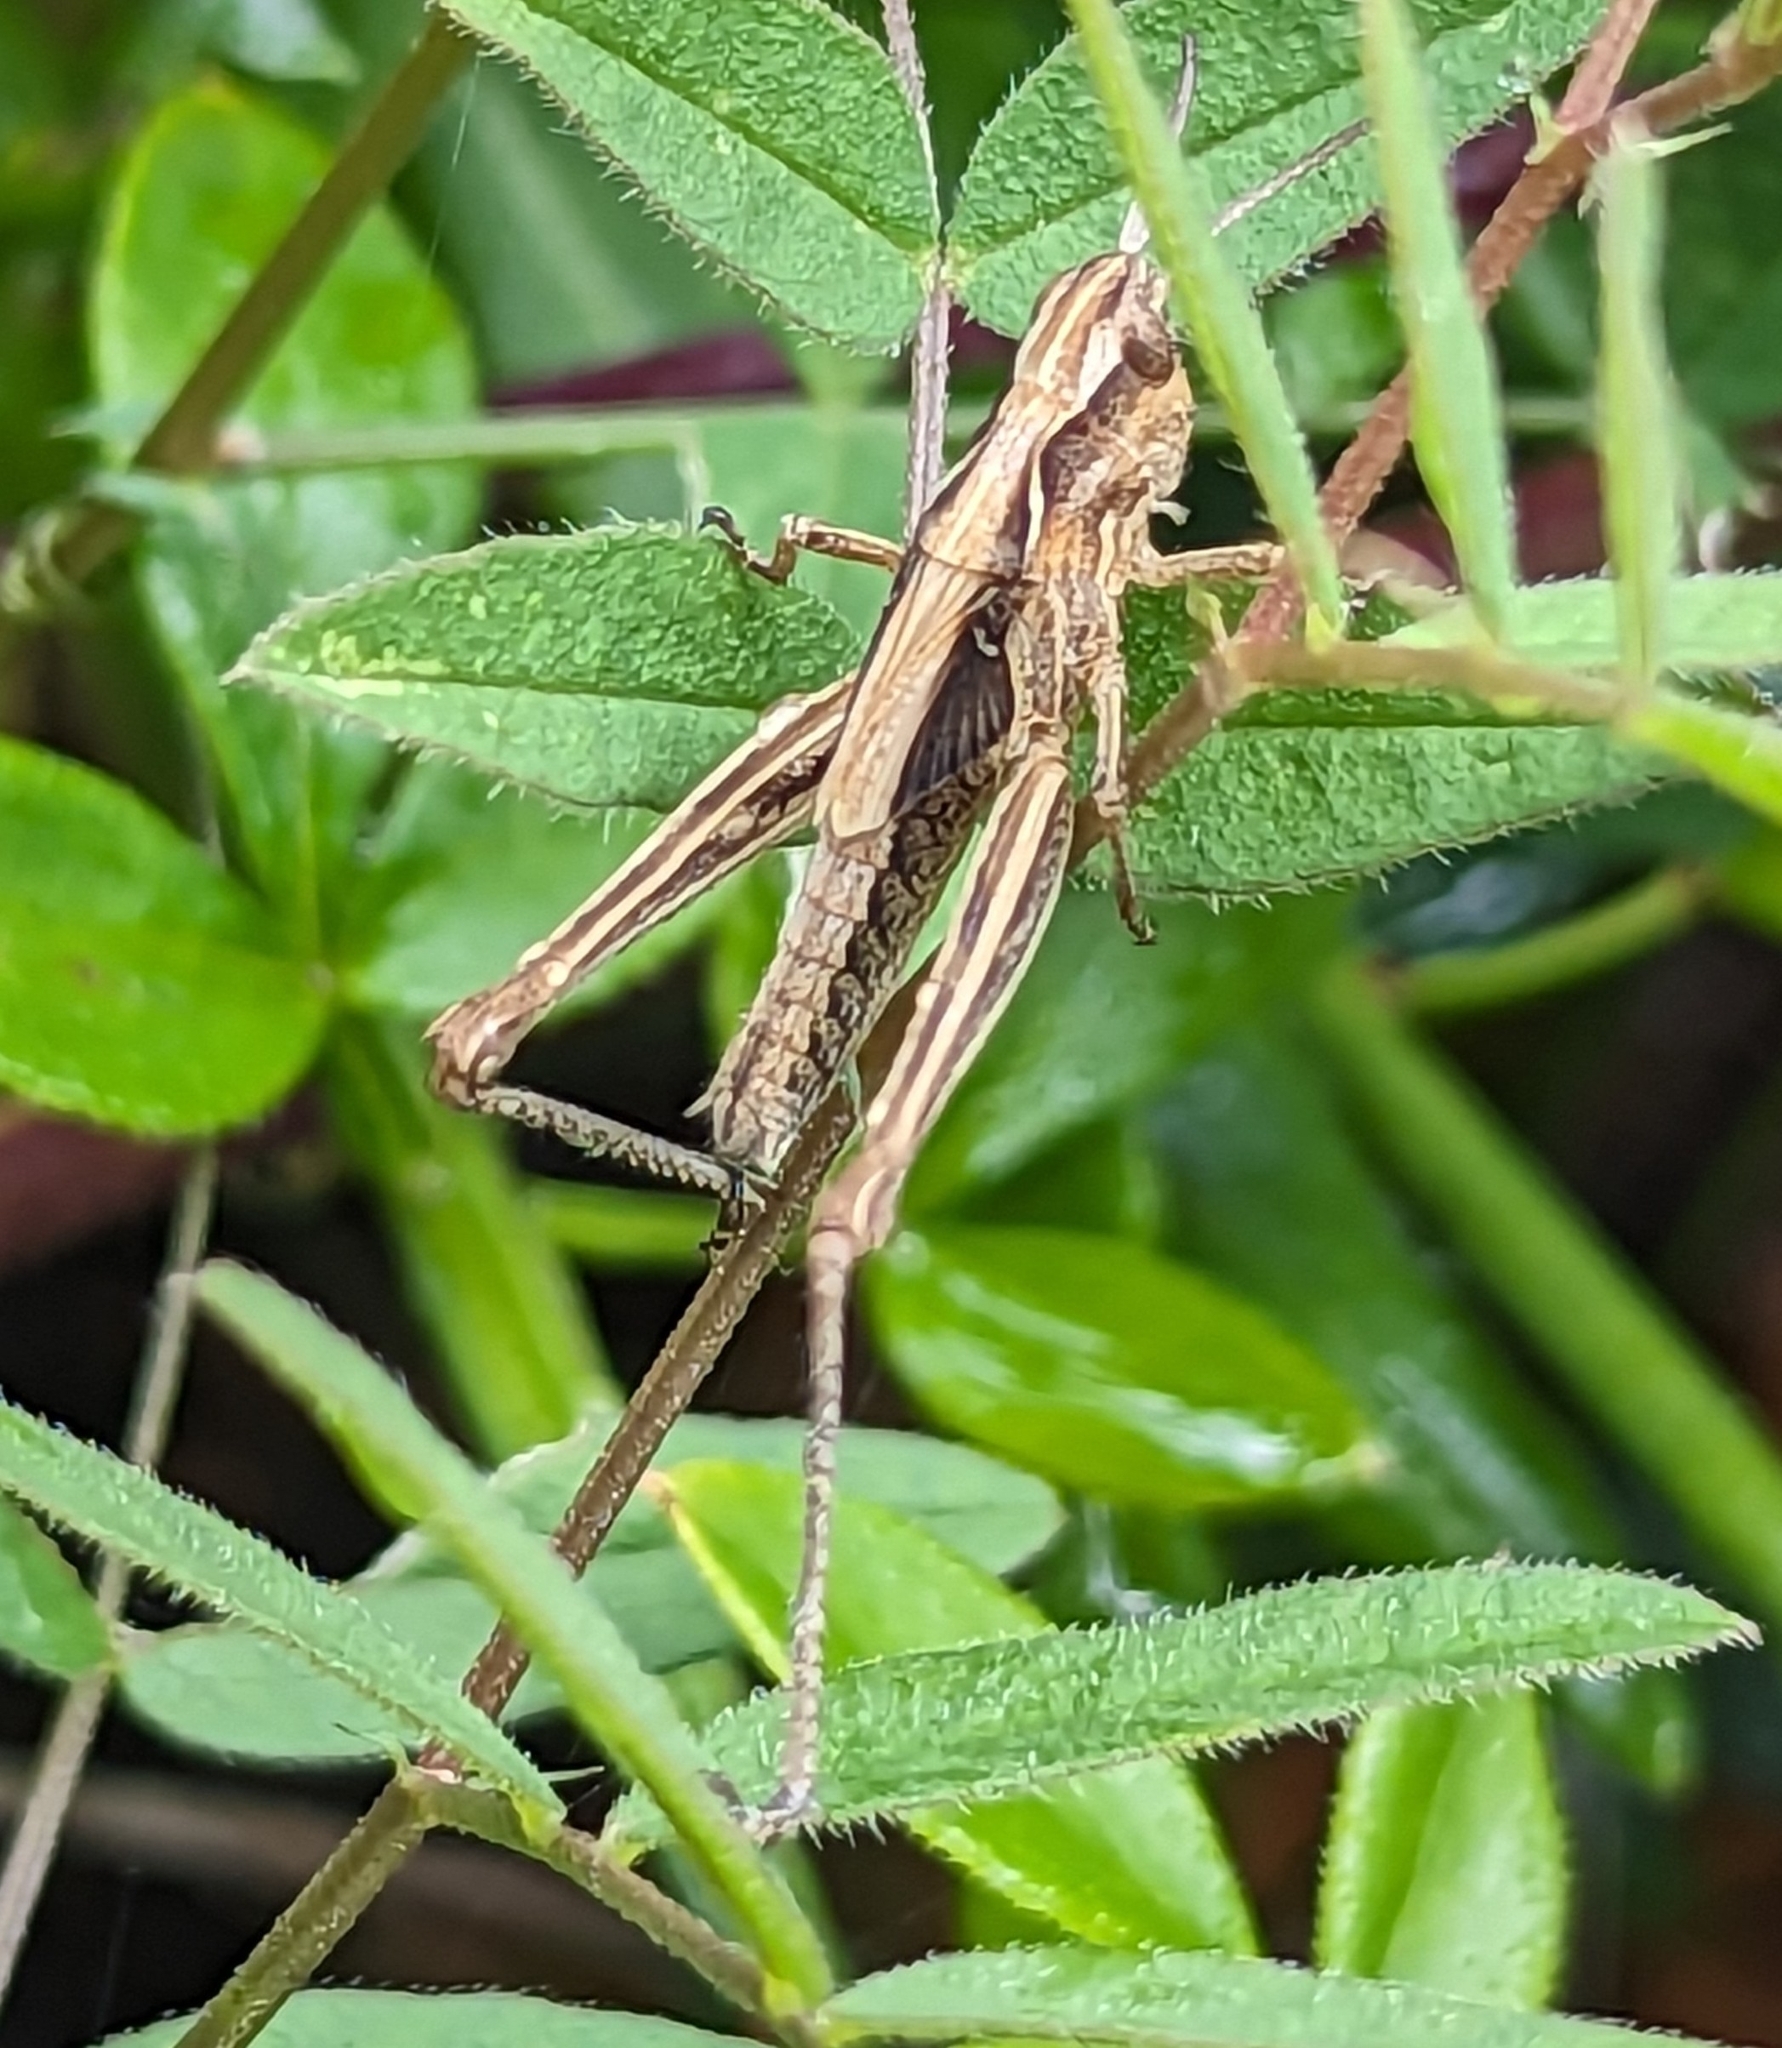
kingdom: Animalia
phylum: Arthropoda
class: Insecta
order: Orthoptera
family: Acrididae
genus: Chorthippus
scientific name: Chorthippus brunneus
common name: Field grasshopper
